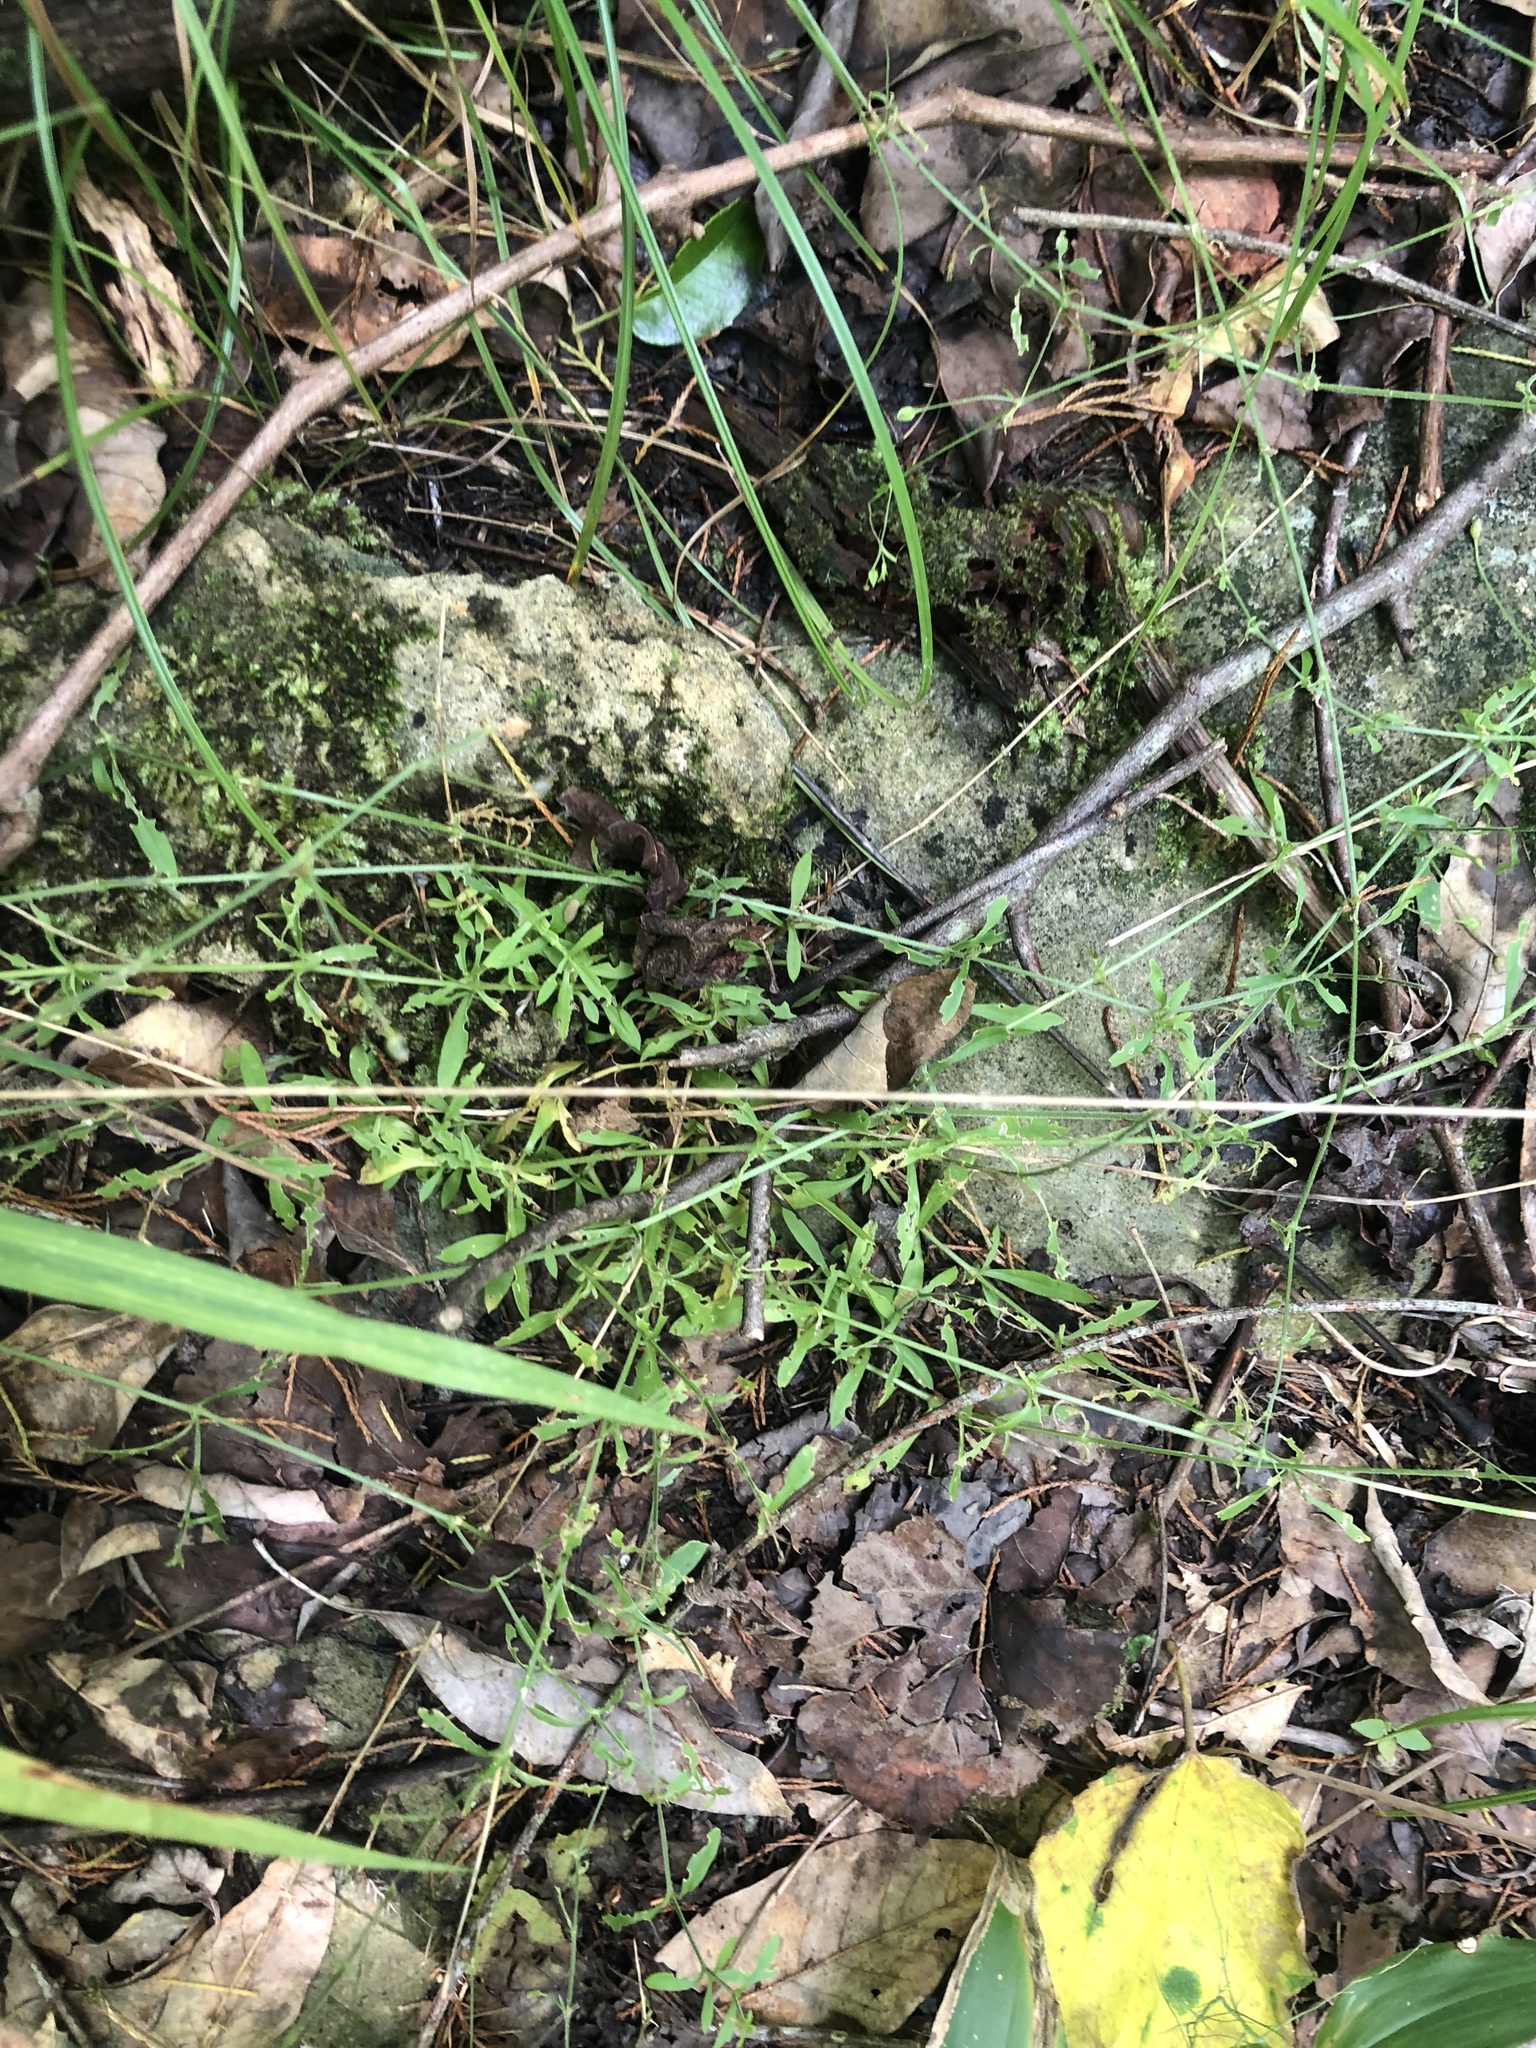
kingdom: Plantae
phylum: Tracheophyta
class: Magnoliopsida
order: Caryophyllales
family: Caryophyllaceae
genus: Arenaria
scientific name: Arenaria lanuginosa
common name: Spread sandwort
